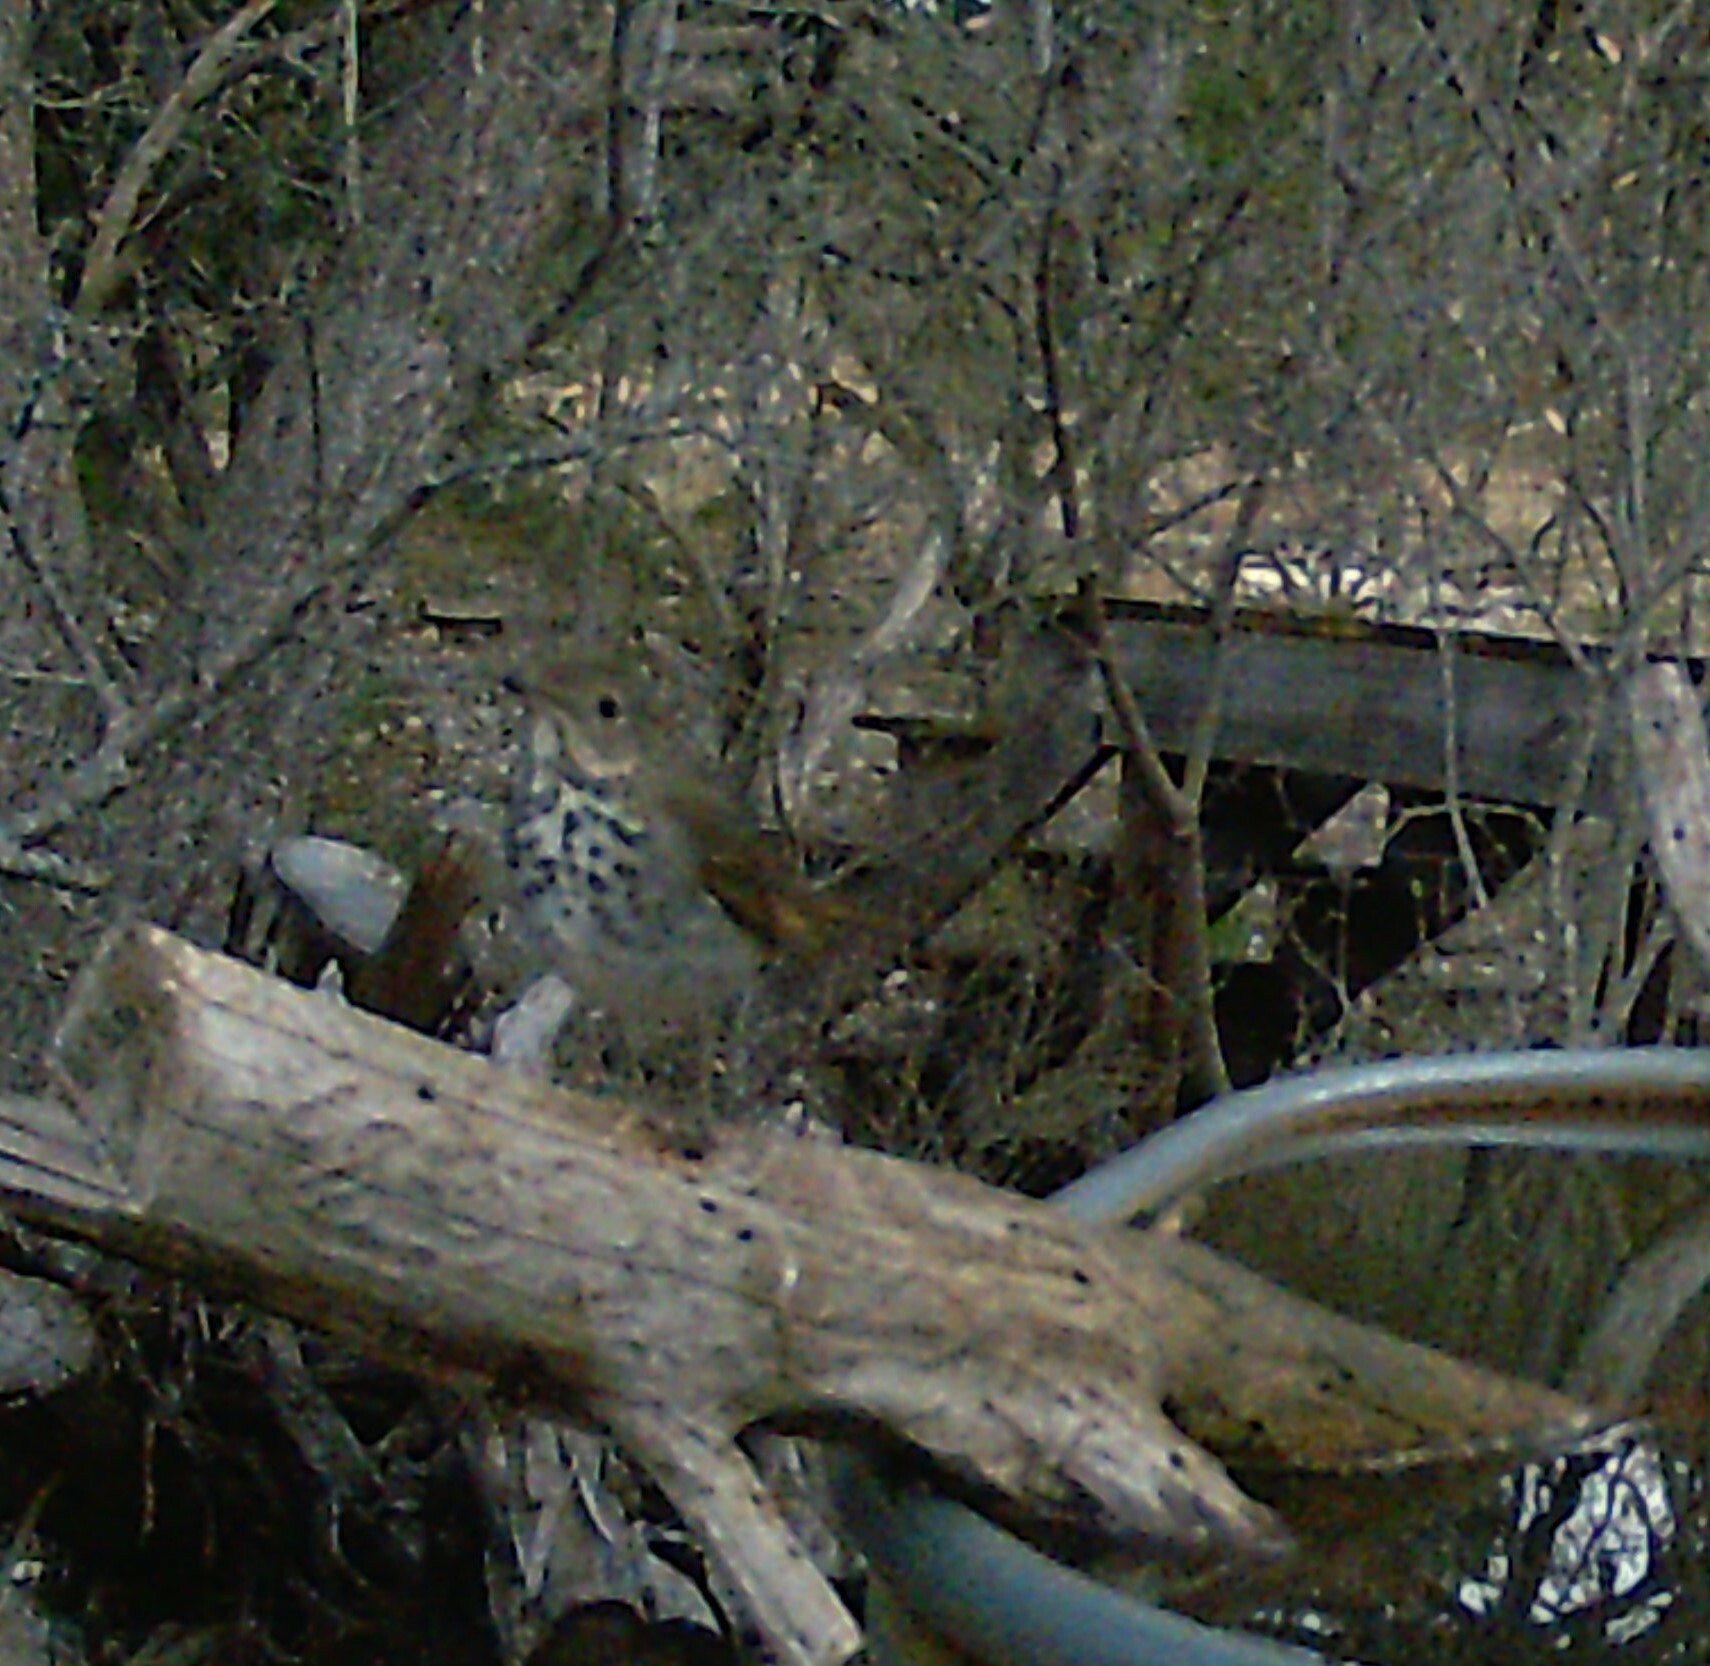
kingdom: Animalia
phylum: Chordata
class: Aves
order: Passeriformes
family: Turdidae
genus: Catharus
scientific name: Catharus guttatus
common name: Hermit thrush
